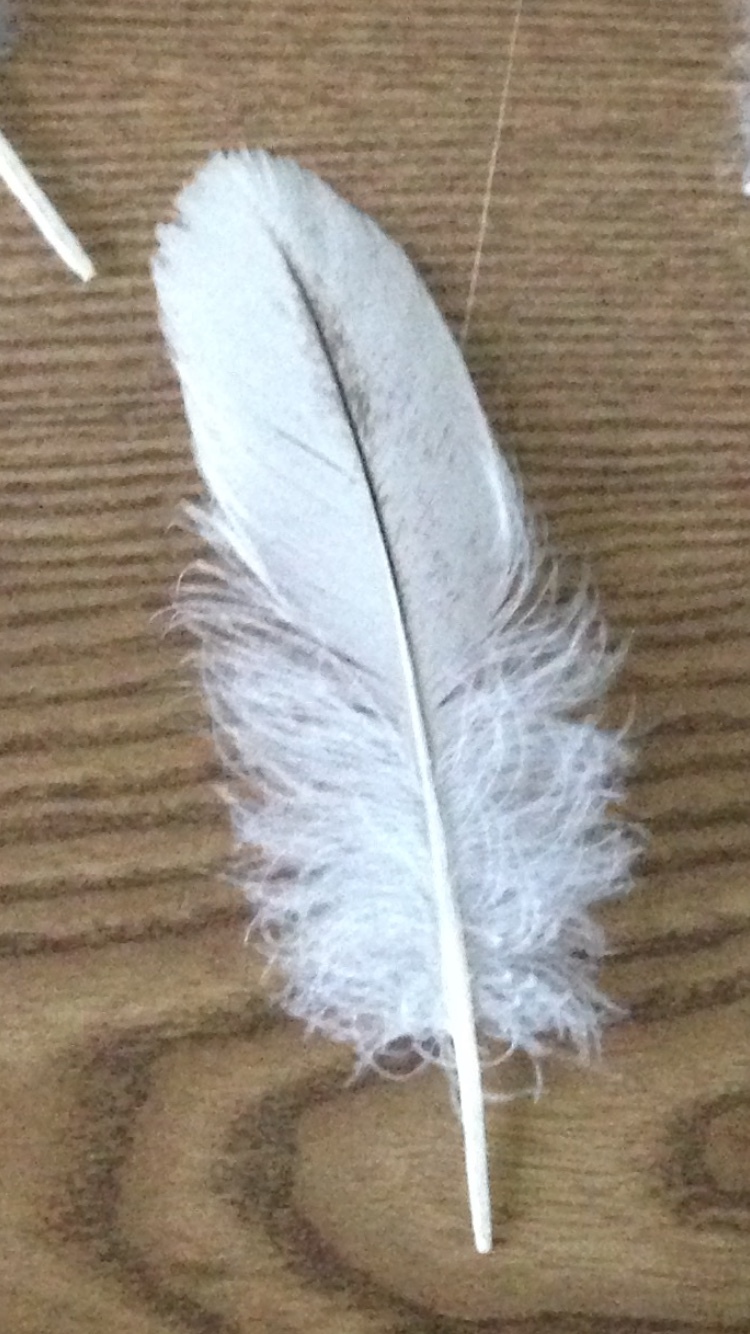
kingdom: Animalia
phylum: Chordata
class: Aves
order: Anseriformes
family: Anatidae
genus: Branta
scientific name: Branta canadensis
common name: Canada goose
